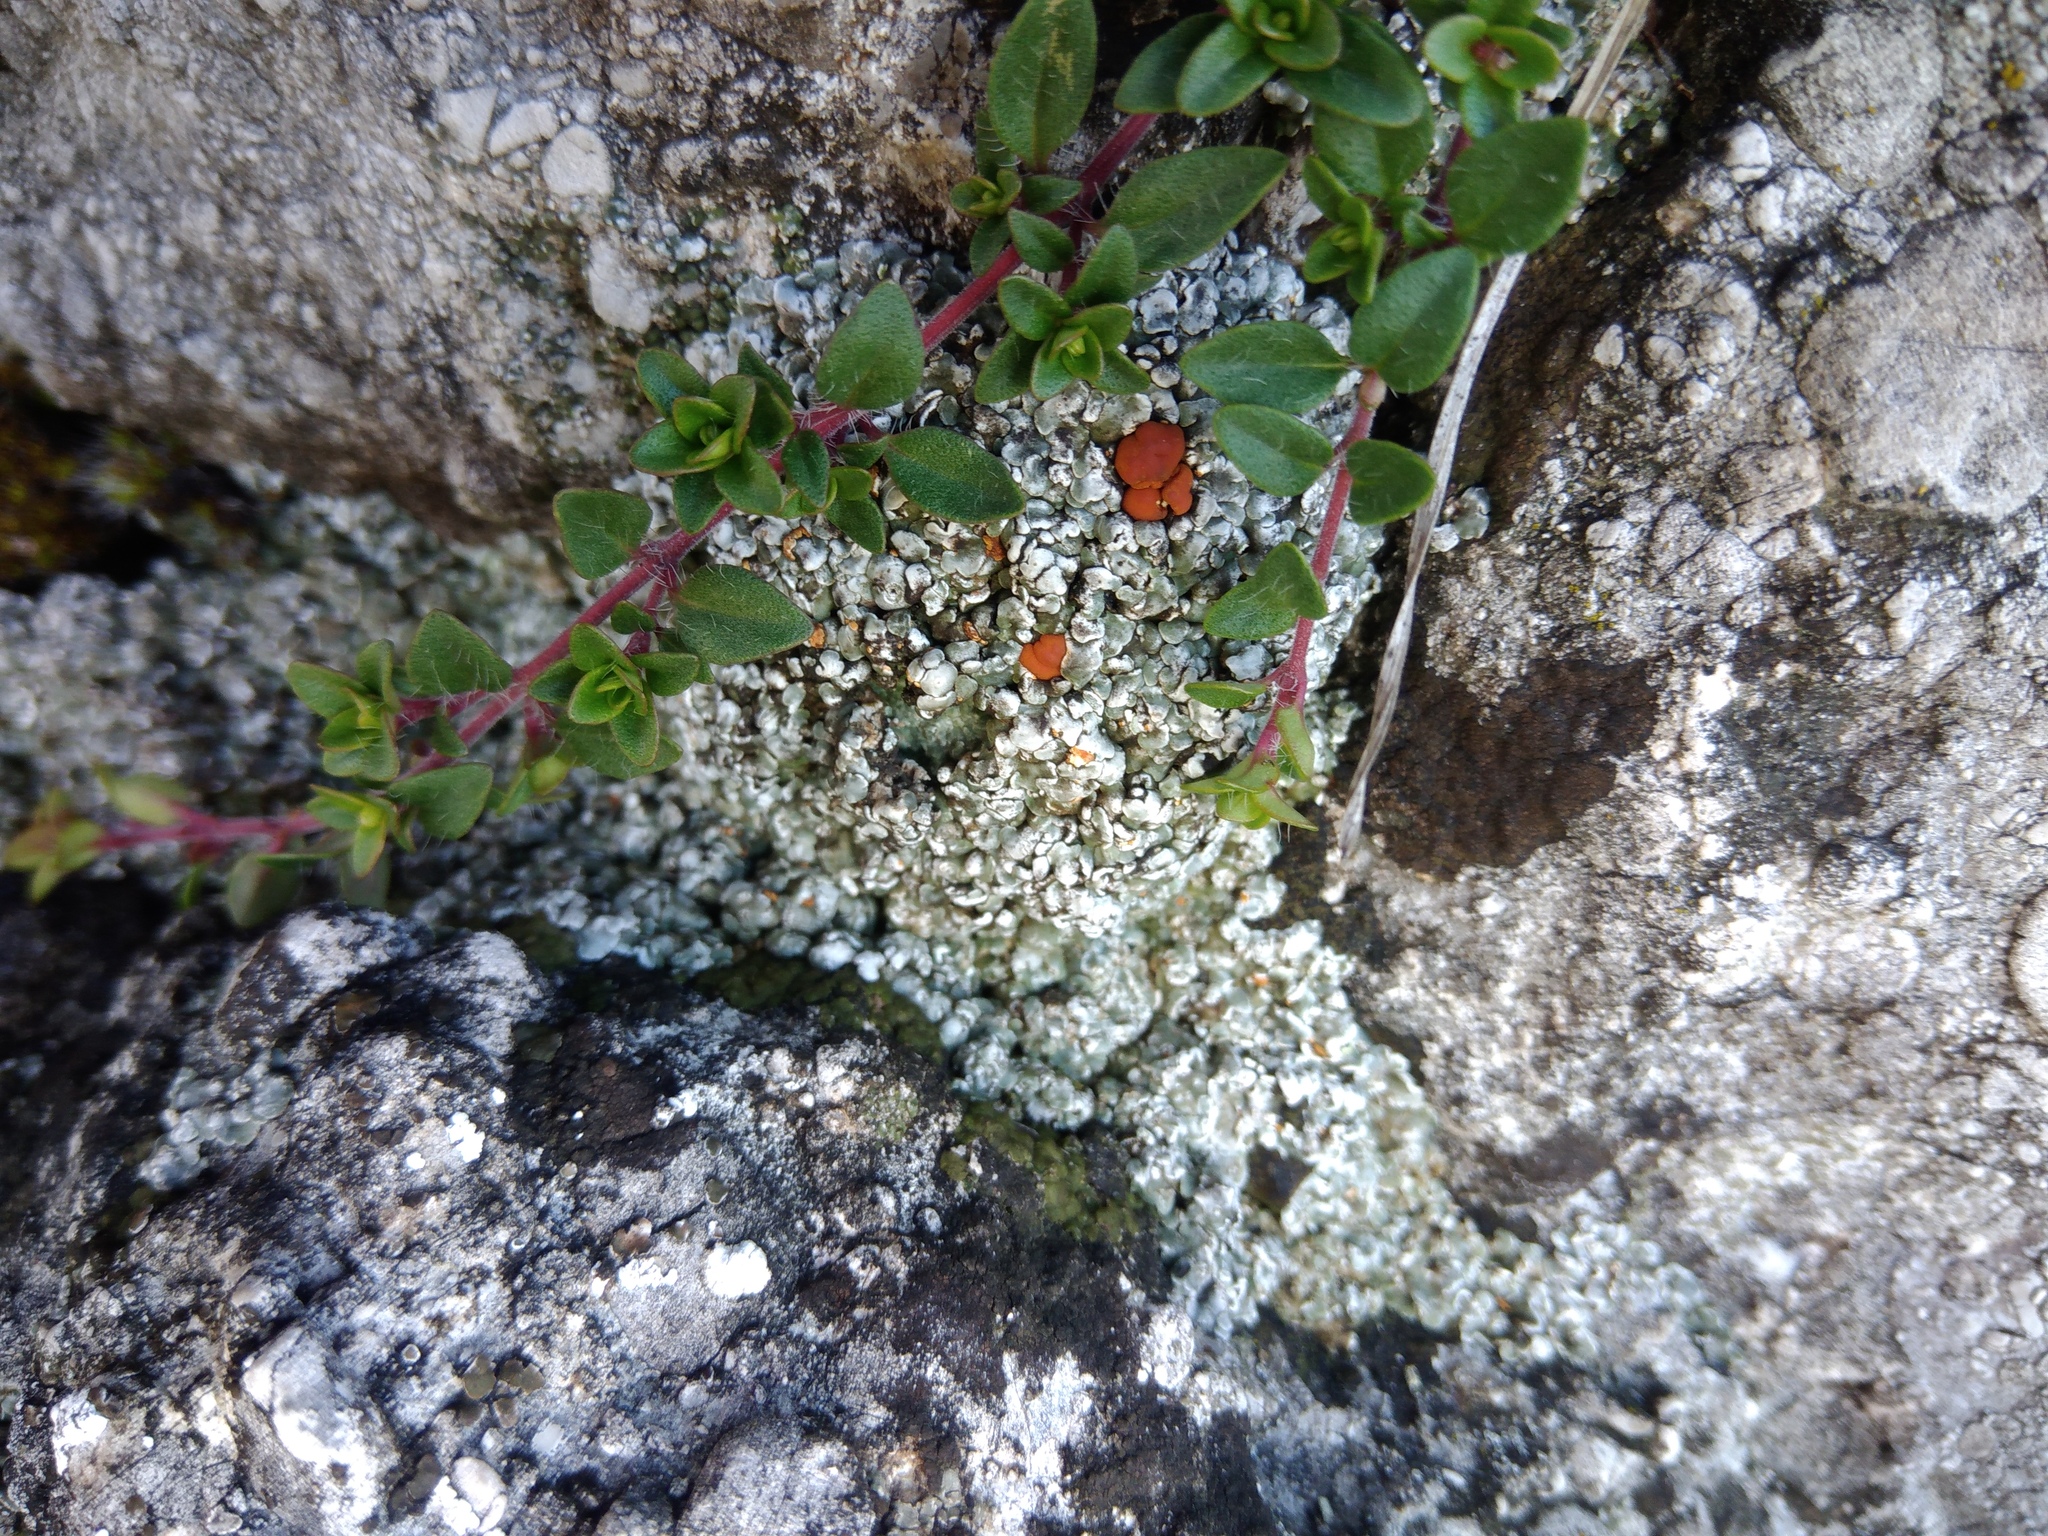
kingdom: Fungi
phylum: Ascomycota
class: Lecanoromycetes
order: Lecanorales
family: Psoraceae
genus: Psora
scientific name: Psora testacea
